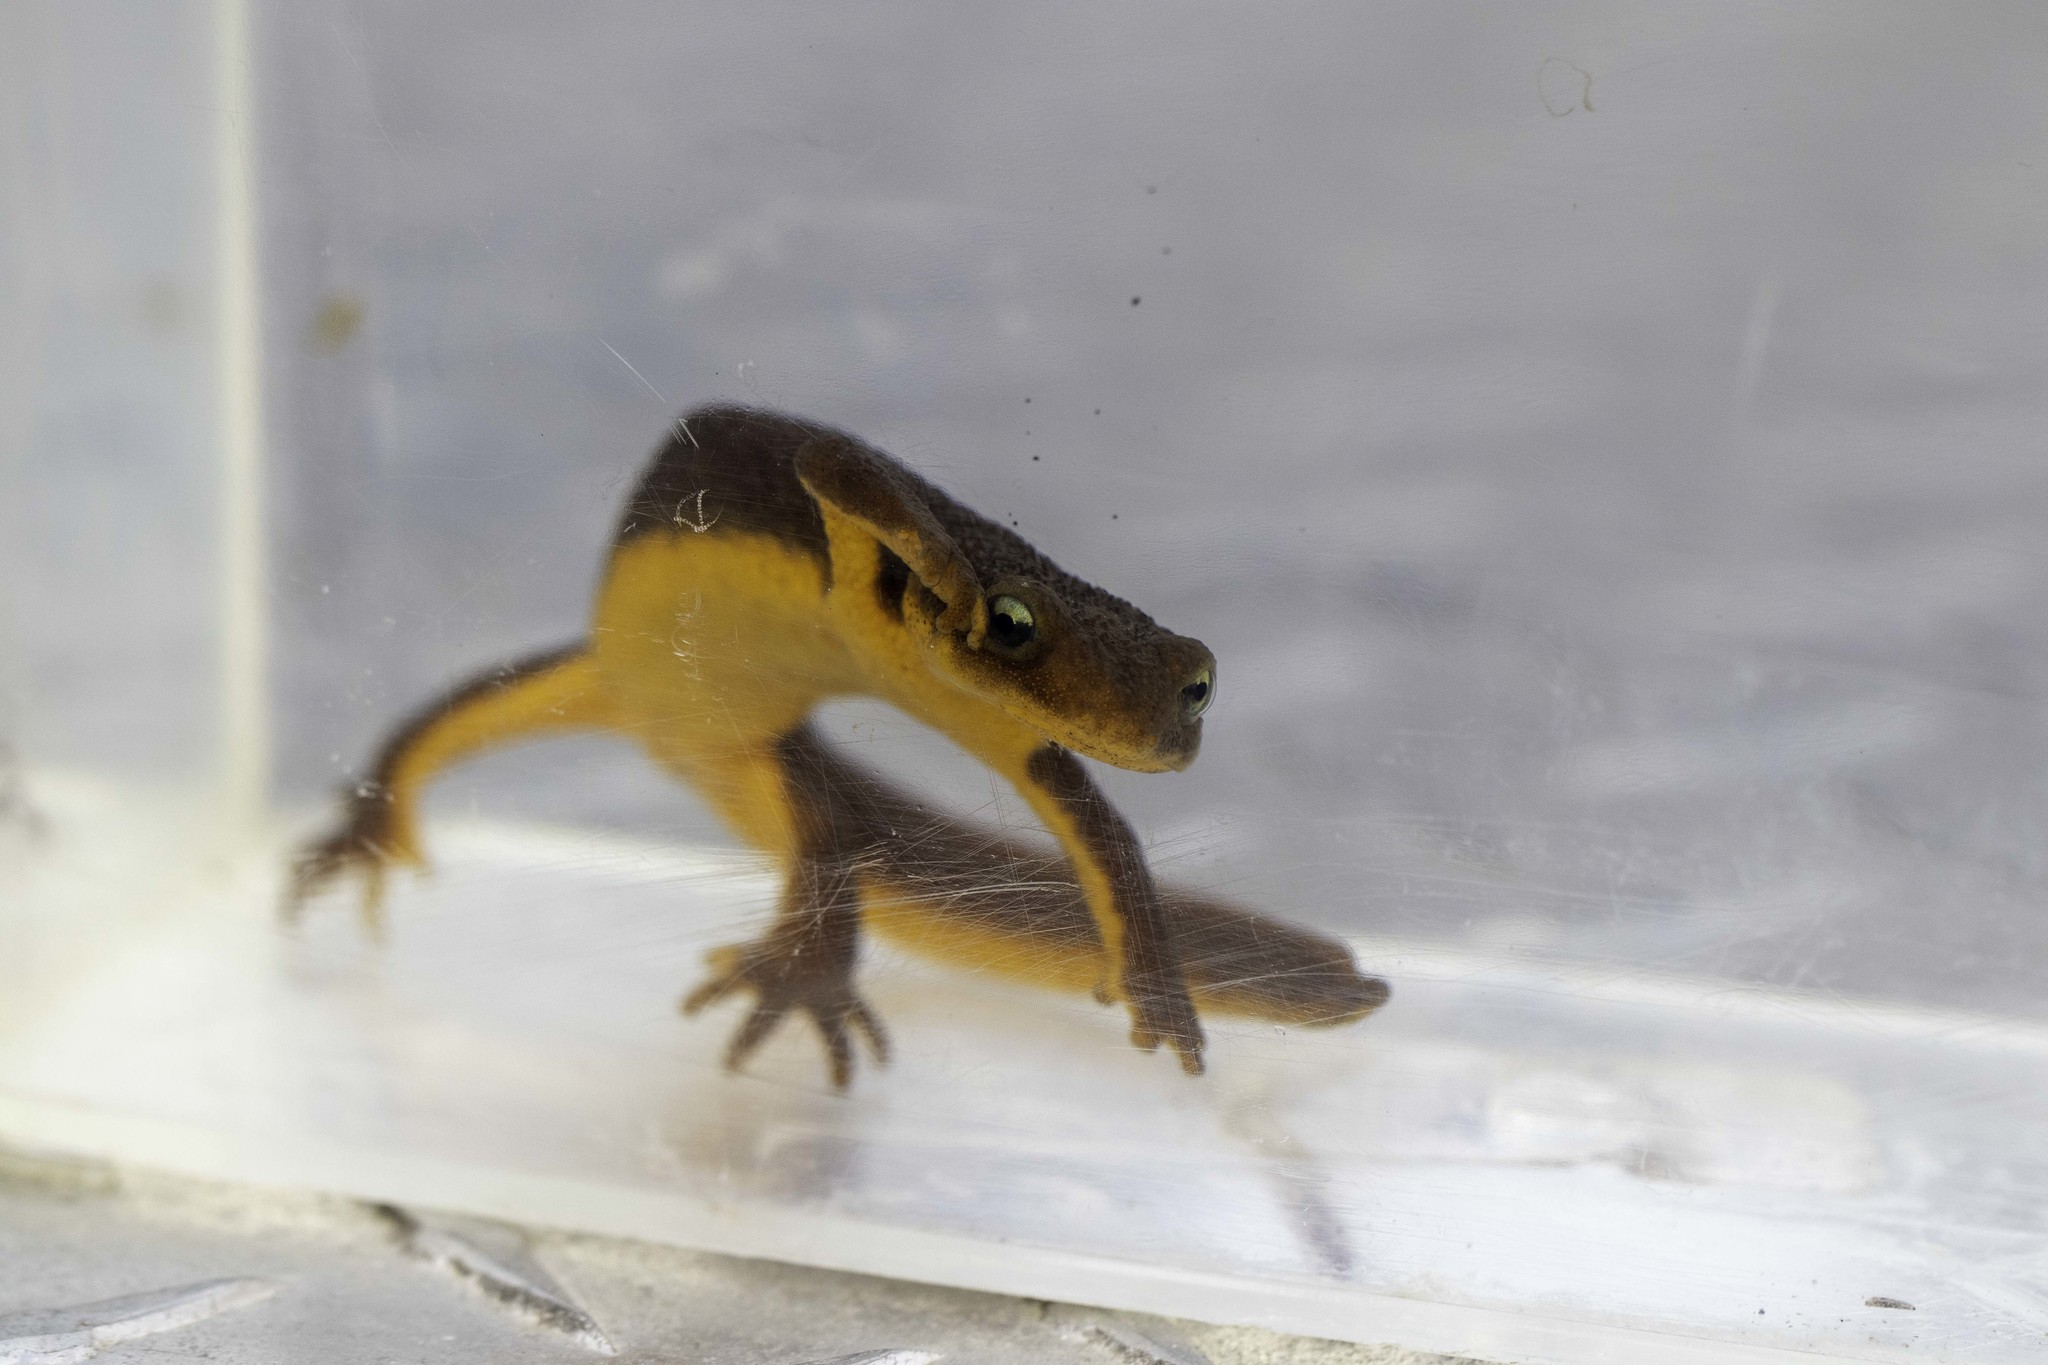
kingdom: Animalia
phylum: Chordata
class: Amphibia
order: Caudata
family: Salamandridae
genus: Taricha
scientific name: Taricha torosa
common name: California newt
